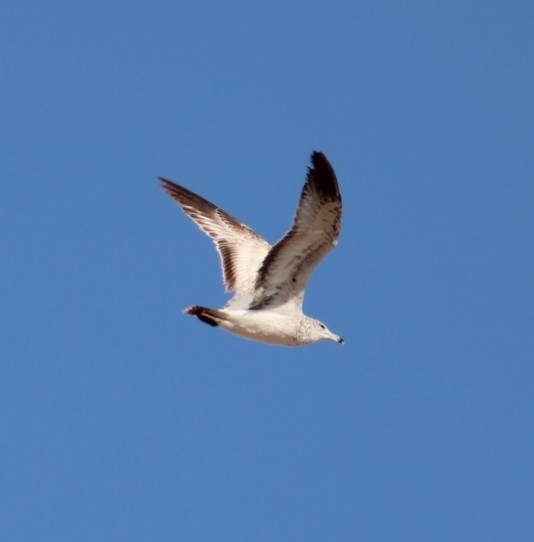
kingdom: Animalia
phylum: Chordata
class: Aves
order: Charadriiformes
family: Laridae
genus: Larus
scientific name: Larus delawarensis
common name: Ring-billed gull
